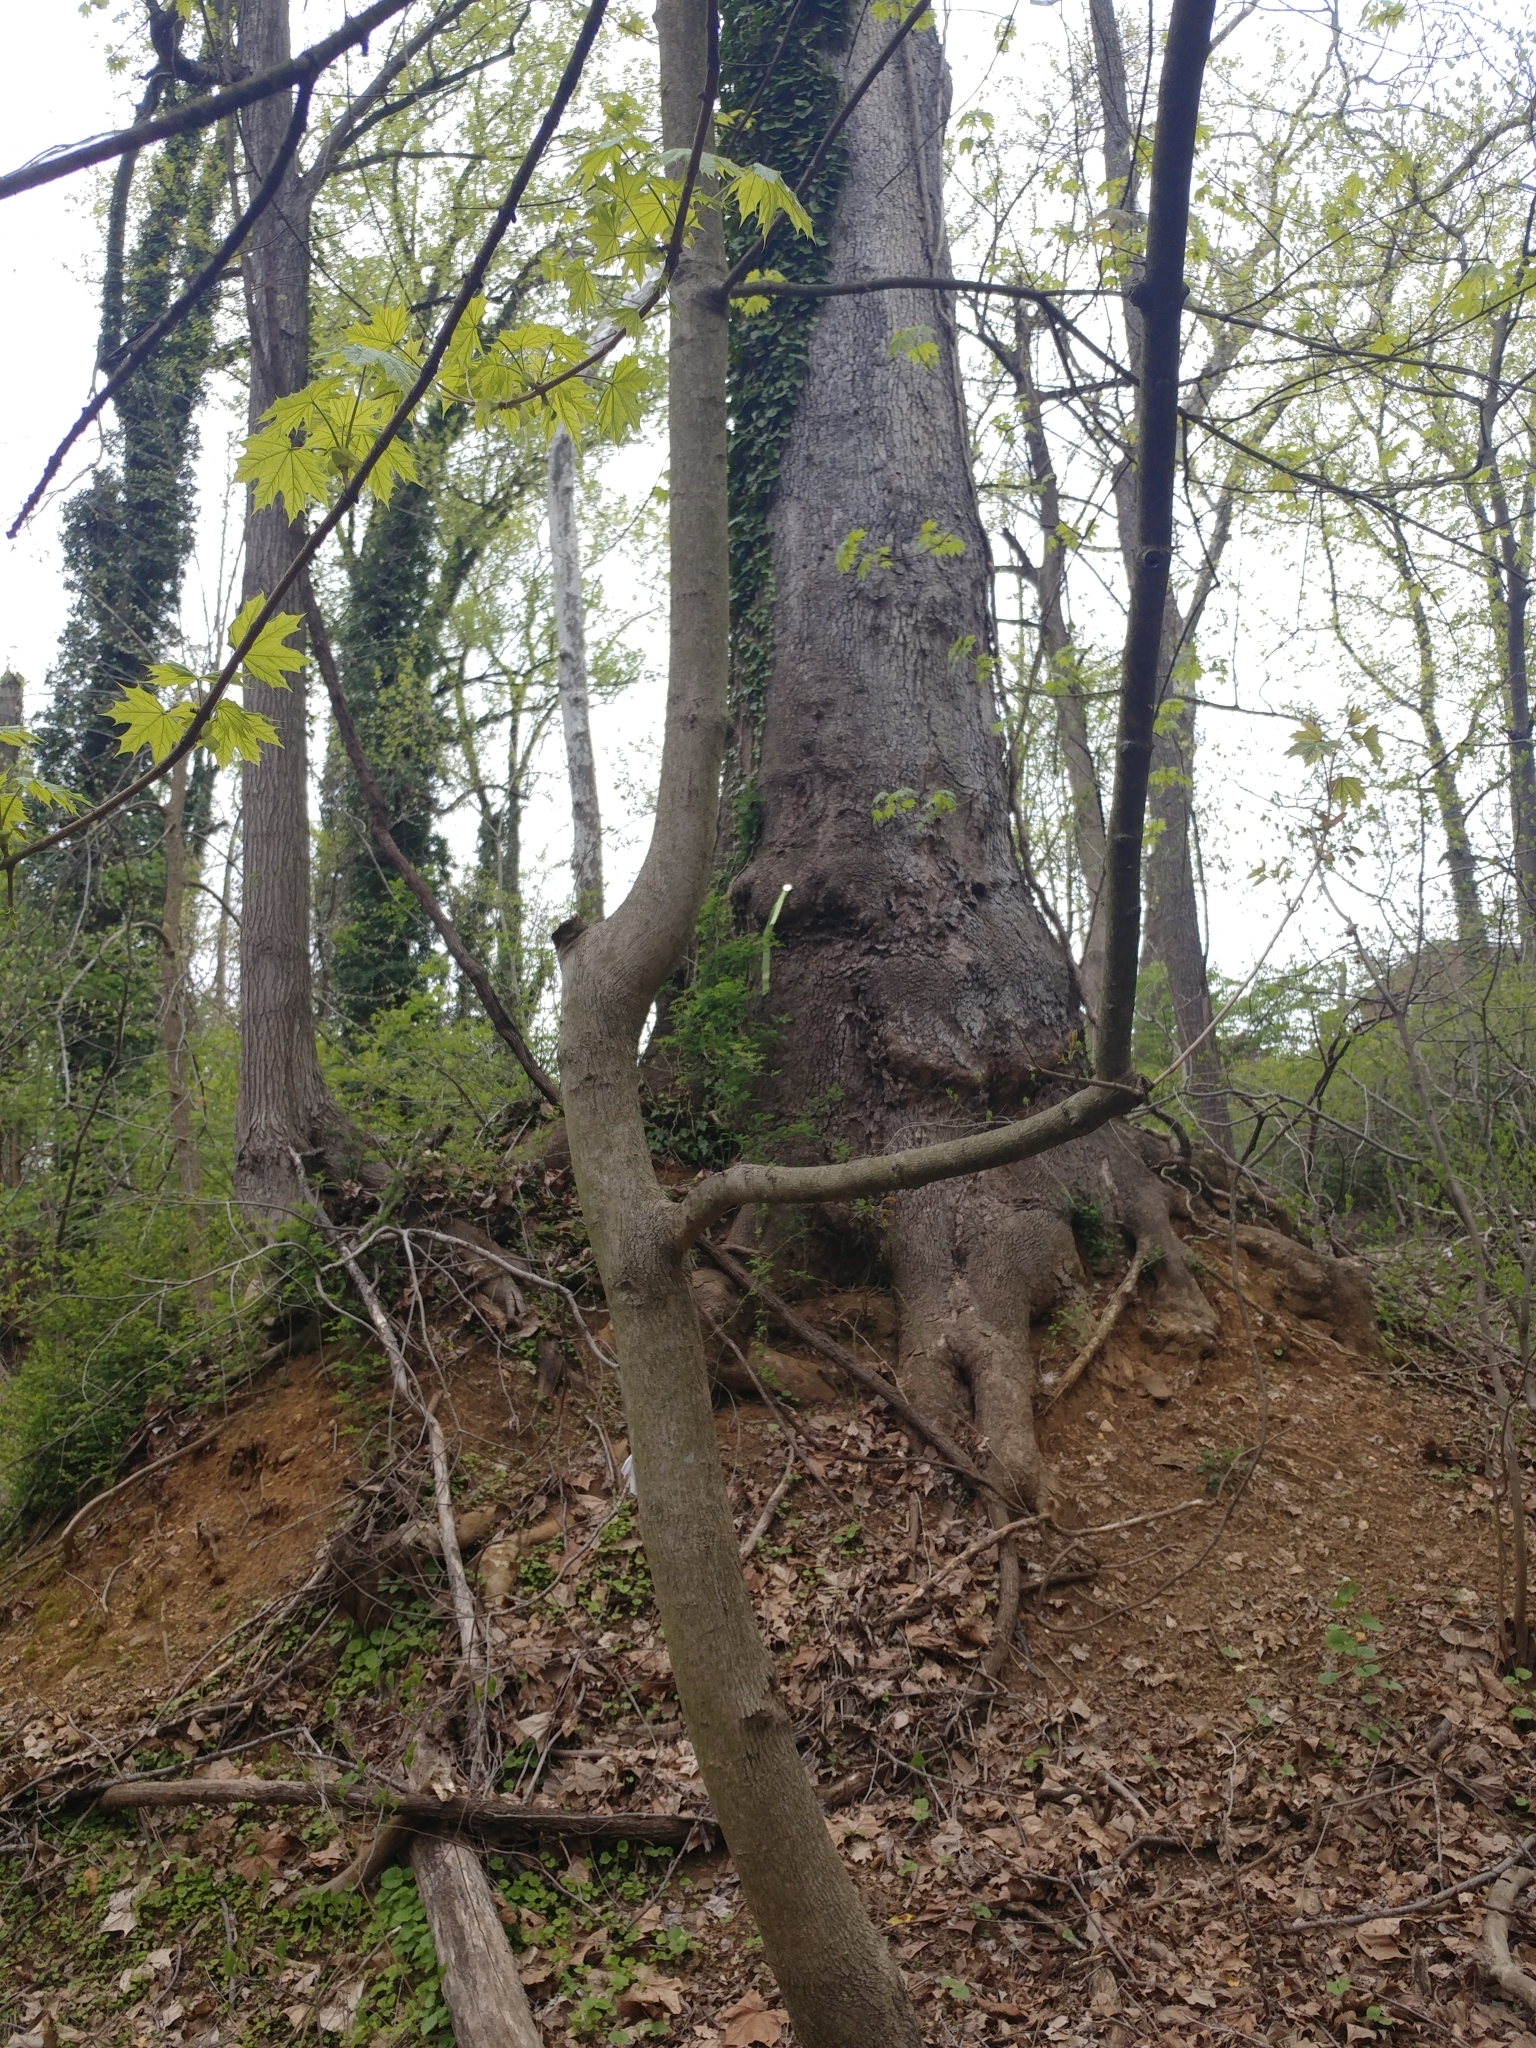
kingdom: Plantae
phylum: Tracheophyta
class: Magnoliopsida
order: Sapindales
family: Sapindaceae
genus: Acer
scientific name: Acer platanoides
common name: Norway maple
